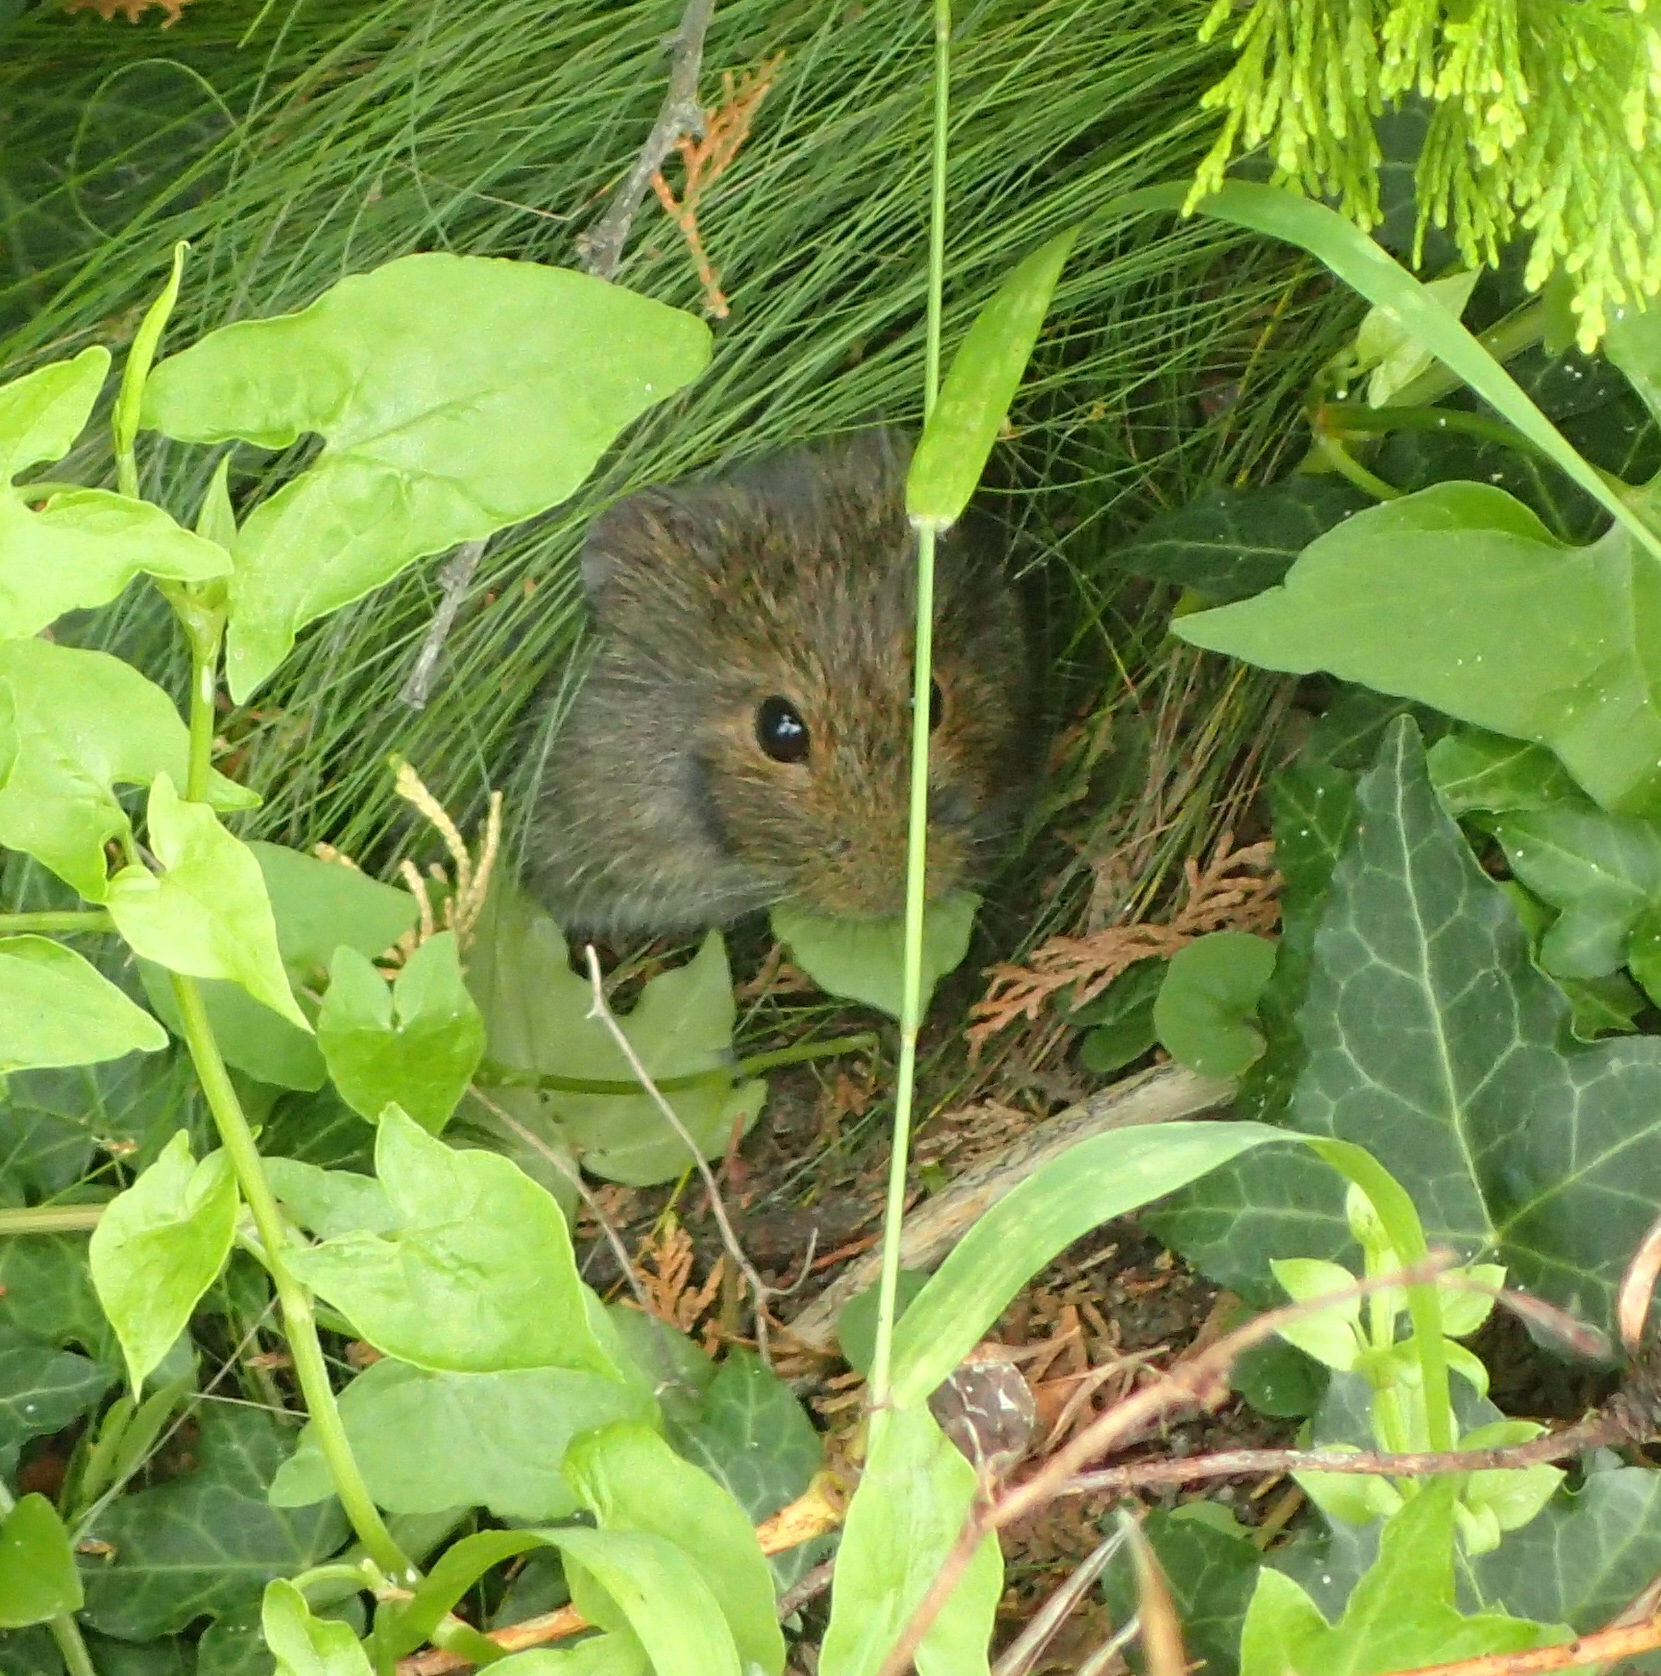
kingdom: Animalia
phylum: Chordata
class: Mammalia
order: Rodentia
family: Muridae
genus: Otomys
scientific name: Otomys irroratus
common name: Southern african vlei rat
